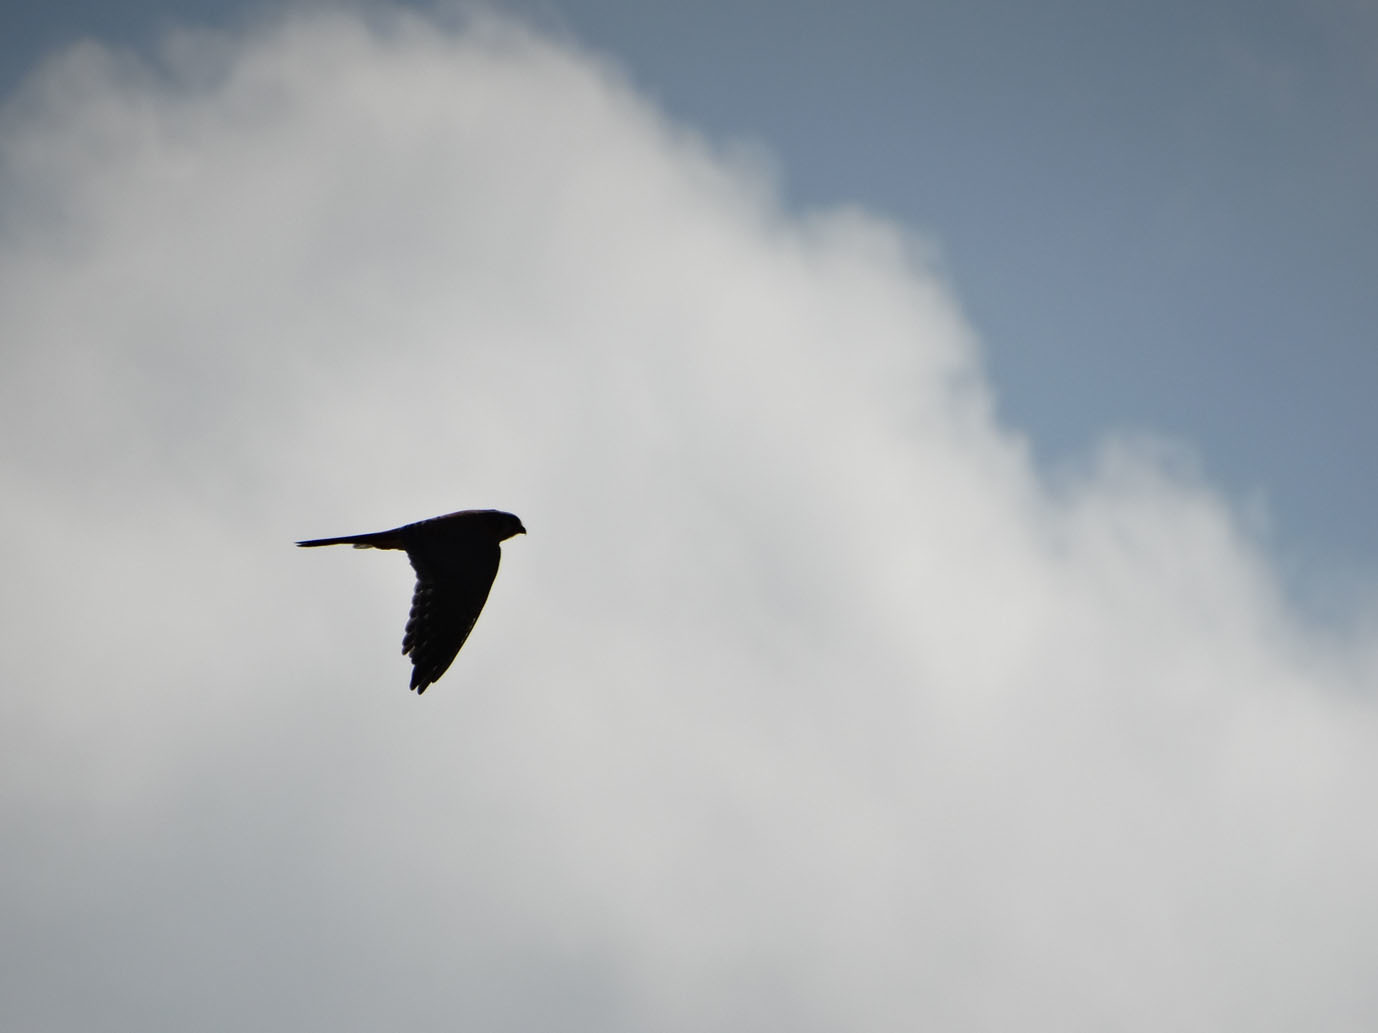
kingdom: Animalia
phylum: Chordata
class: Aves
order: Falconiformes
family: Falconidae
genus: Falco
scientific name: Falco sparverius
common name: American kestrel
